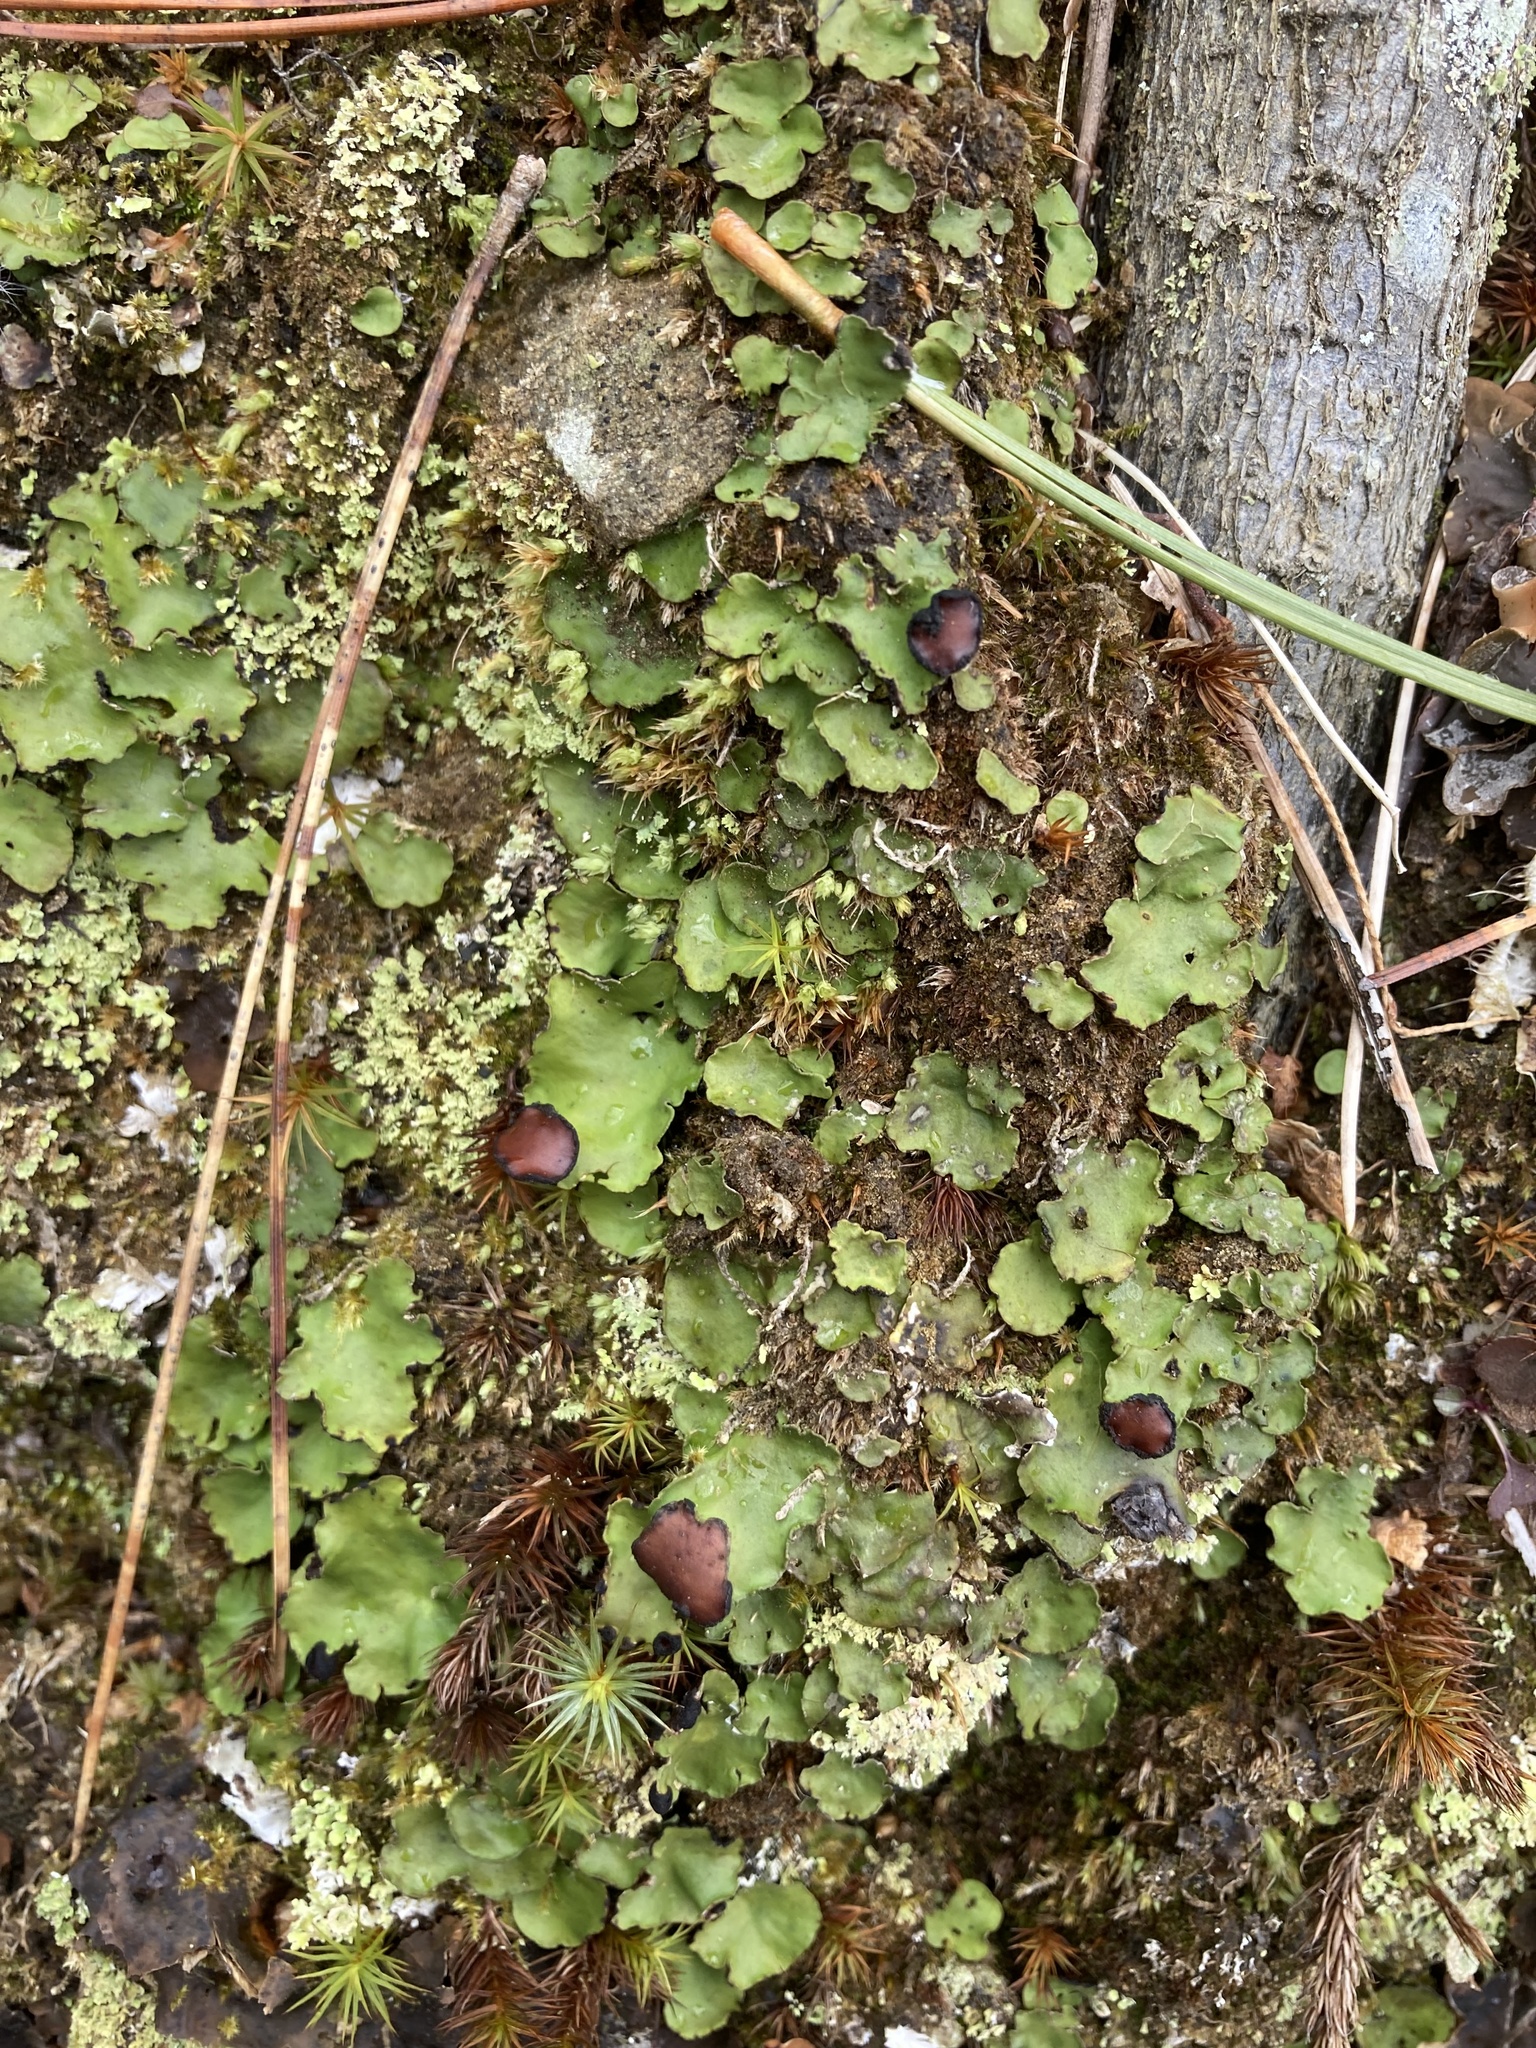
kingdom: Fungi
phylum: Ascomycota
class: Lecanoromycetes
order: Peltigerales
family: Peltigeraceae
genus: Peltigera
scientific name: Peltigera aphthosa
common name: Common freckle pelt lichen
